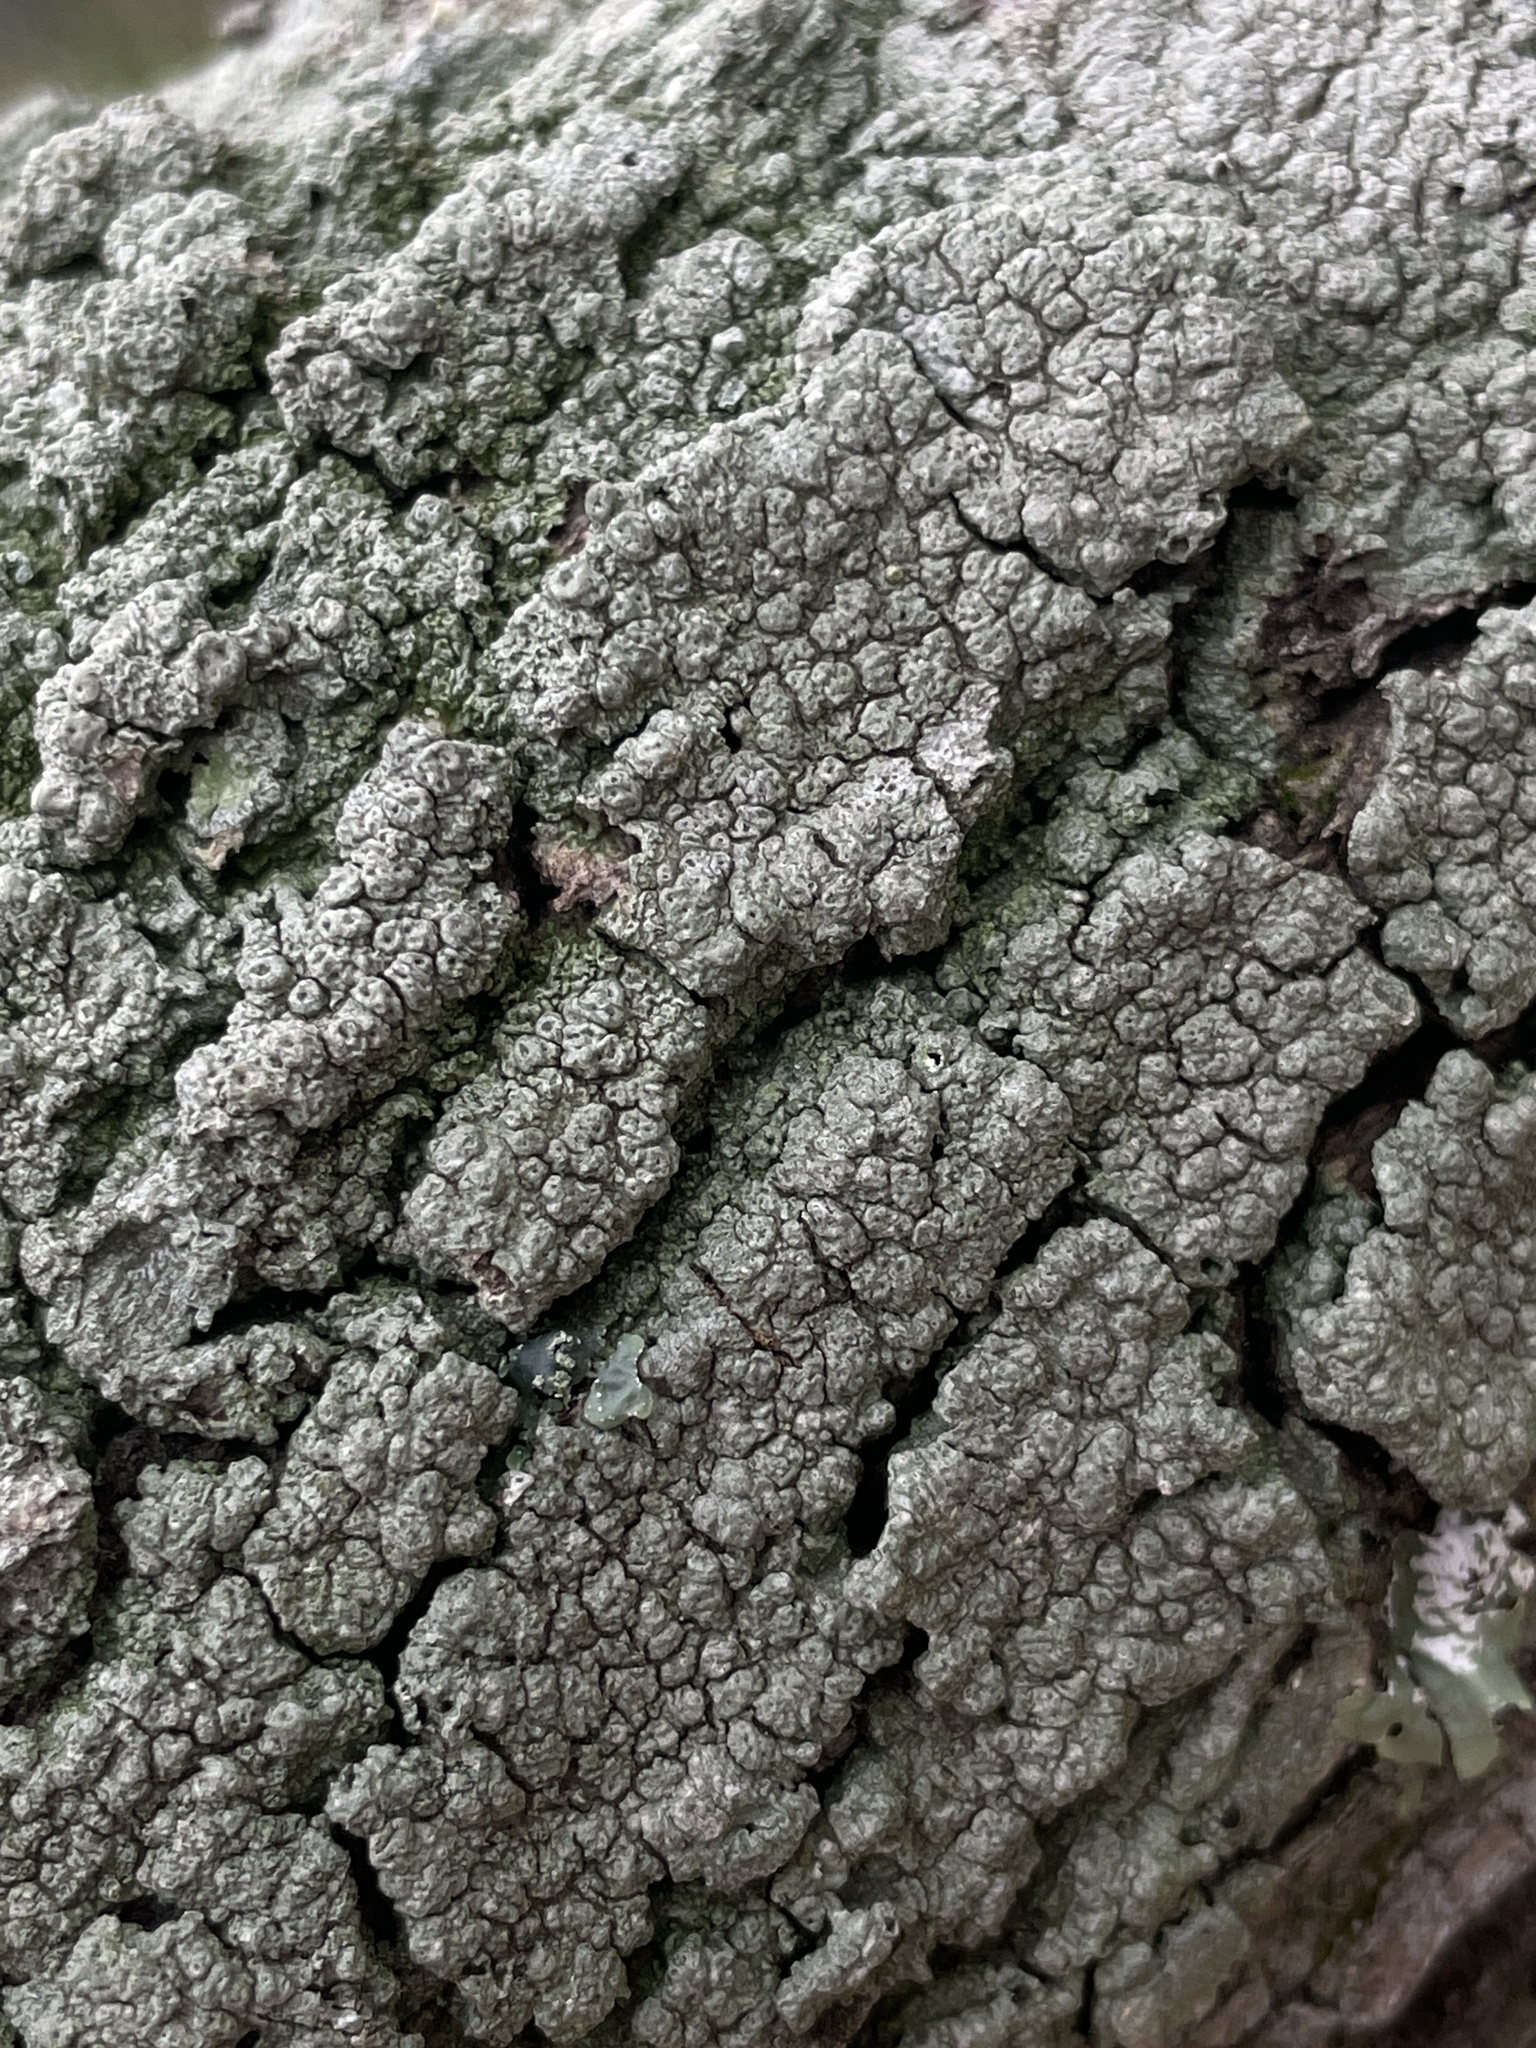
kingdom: Fungi
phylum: Ascomycota
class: Lecanoromycetes
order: Pertusariales
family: Pertusariaceae
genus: Pertusaria
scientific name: Pertusaria pertusa
